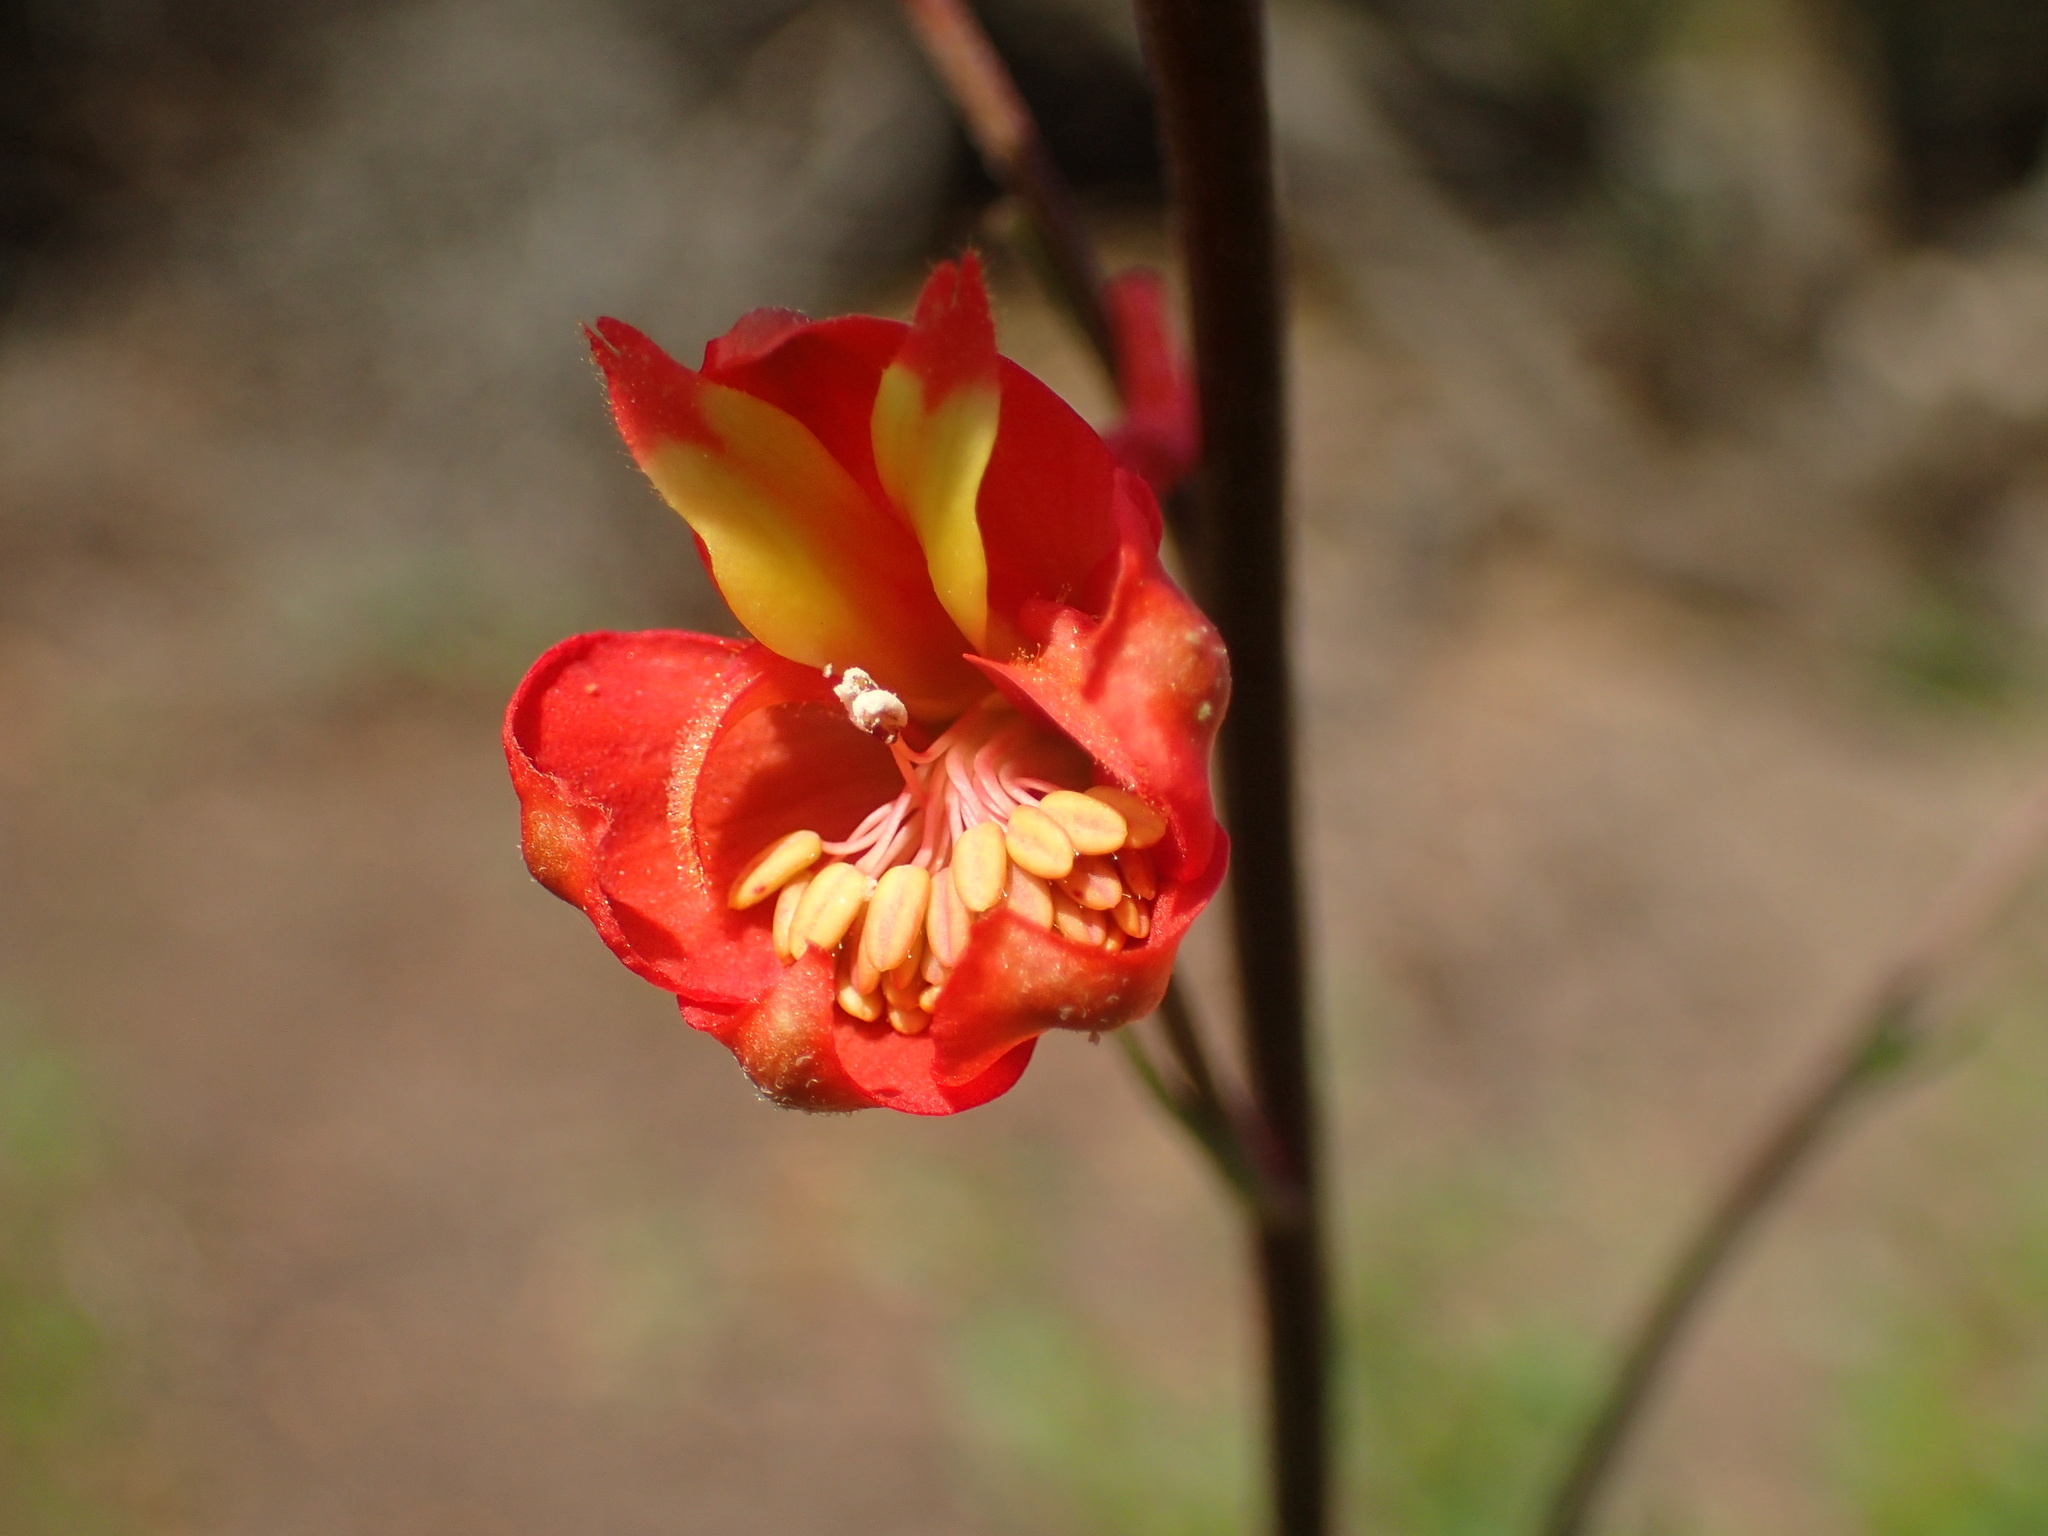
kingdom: Plantae
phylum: Tracheophyta
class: Magnoliopsida
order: Ranunculales
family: Ranunculaceae
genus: Delphinium
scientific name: Delphinium cardinale
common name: Scarlet larkspur
